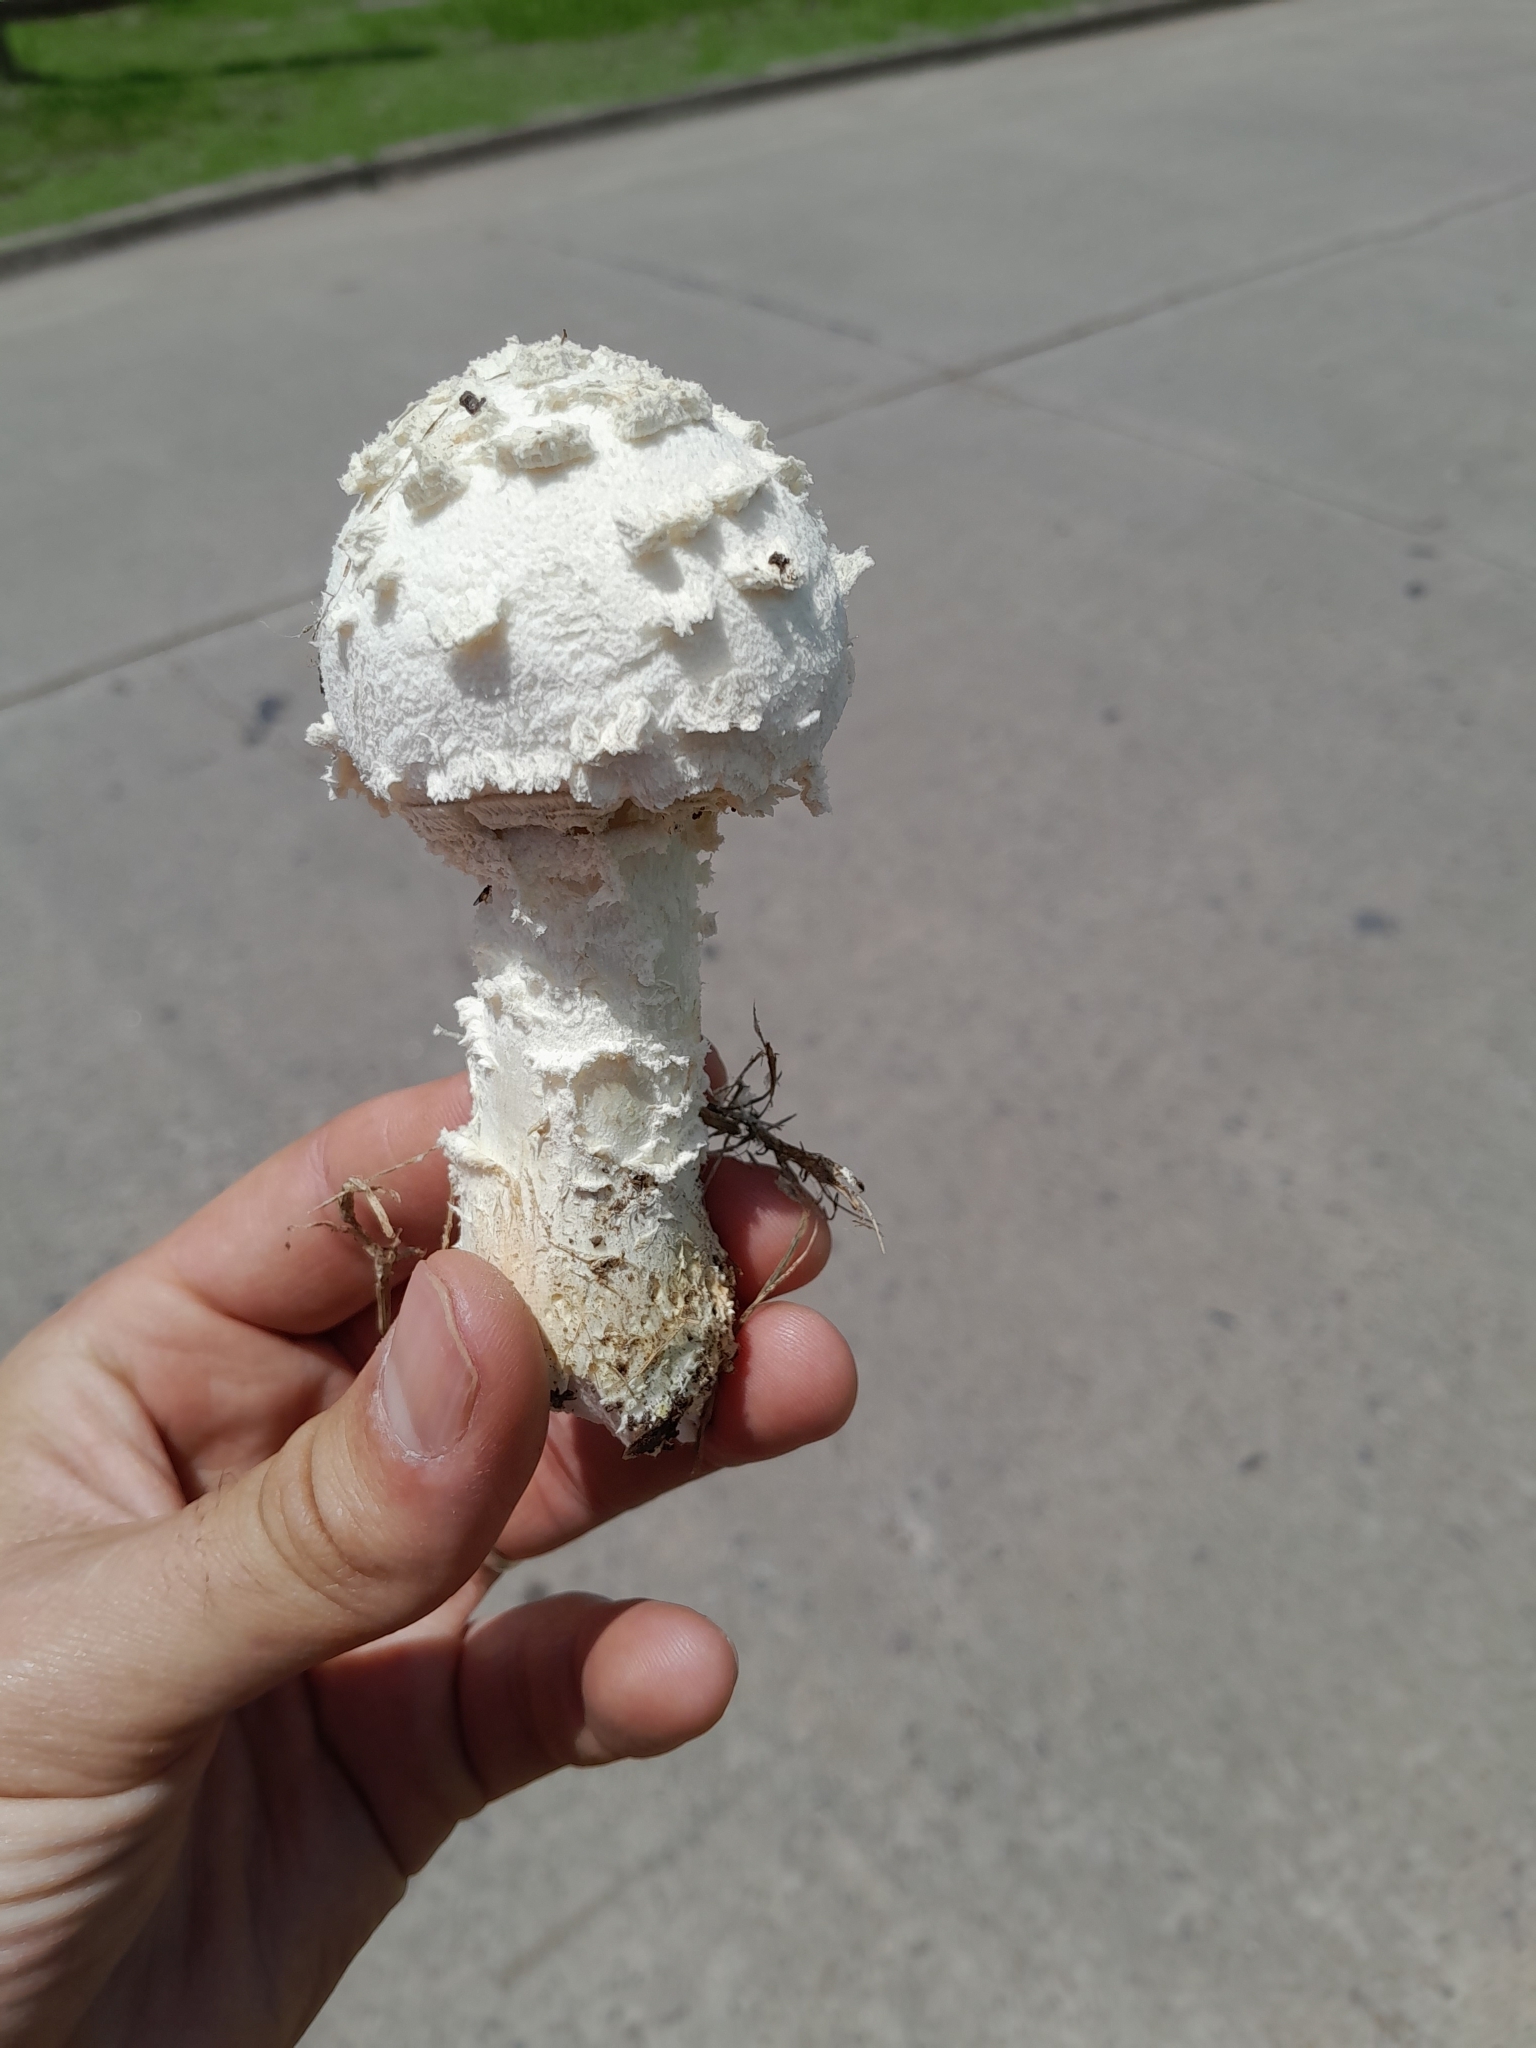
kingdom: Fungi
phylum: Basidiomycota
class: Agaricomycetes
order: Agaricales
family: Amanitaceae
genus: Aspidella
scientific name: Aspidella foetens
